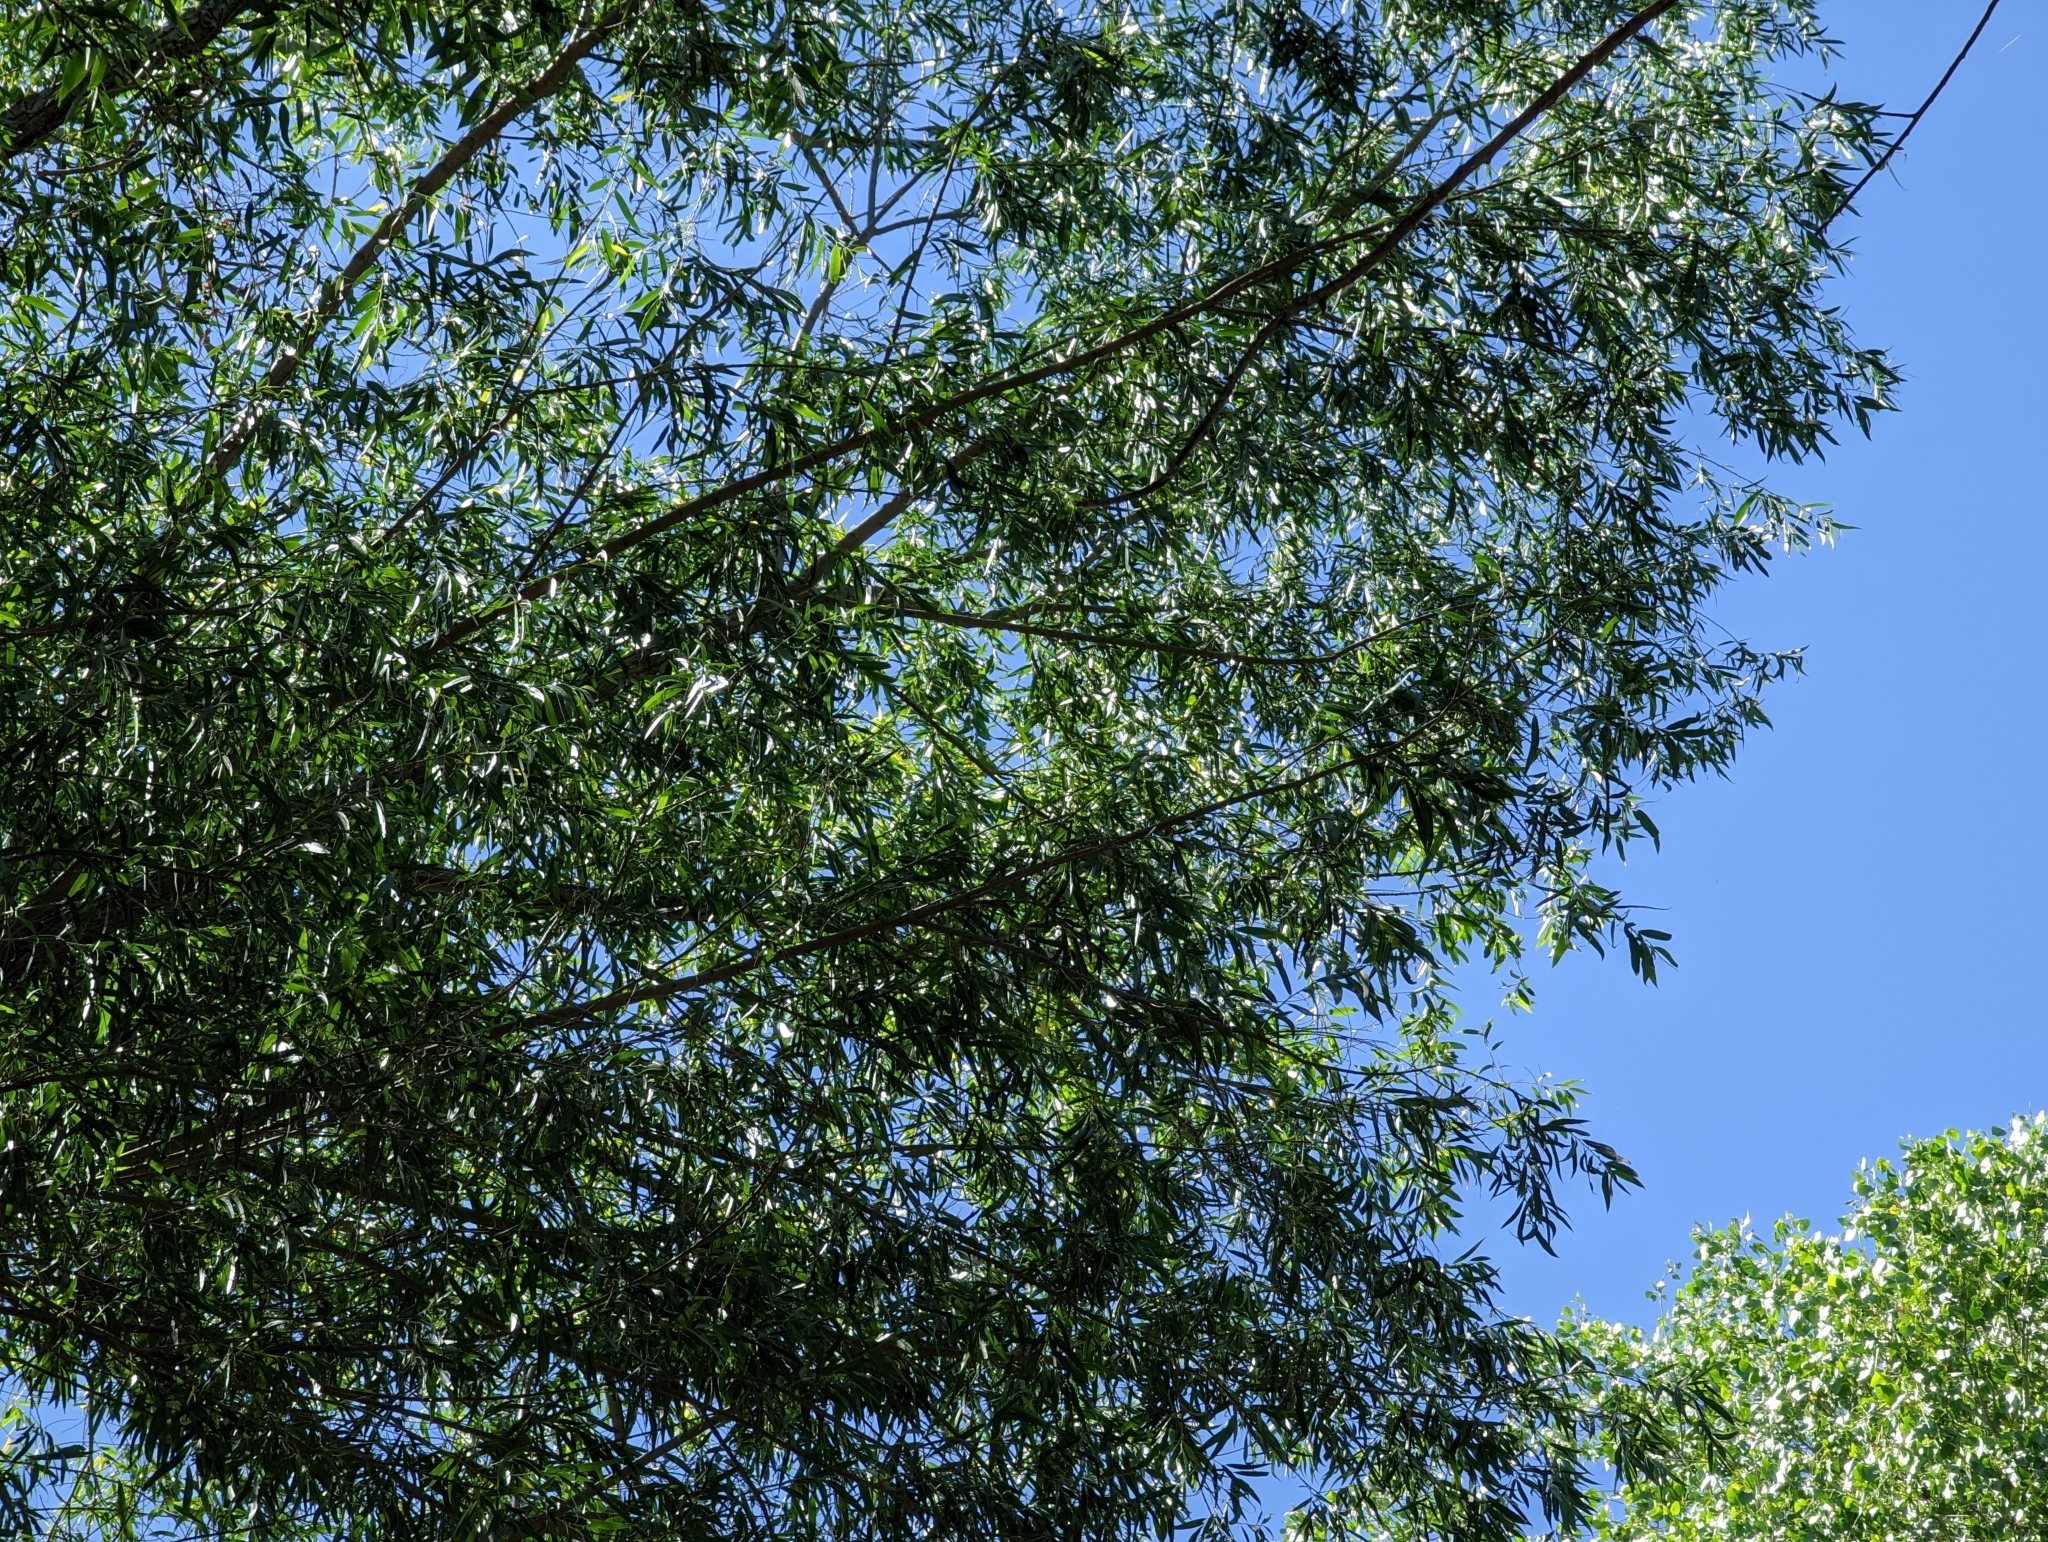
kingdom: Plantae
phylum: Tracheophyta
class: Magnoliopsida
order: Malpighiales
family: Salicaceae
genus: Salix
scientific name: Salix gooddingii
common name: Goodding's willow
